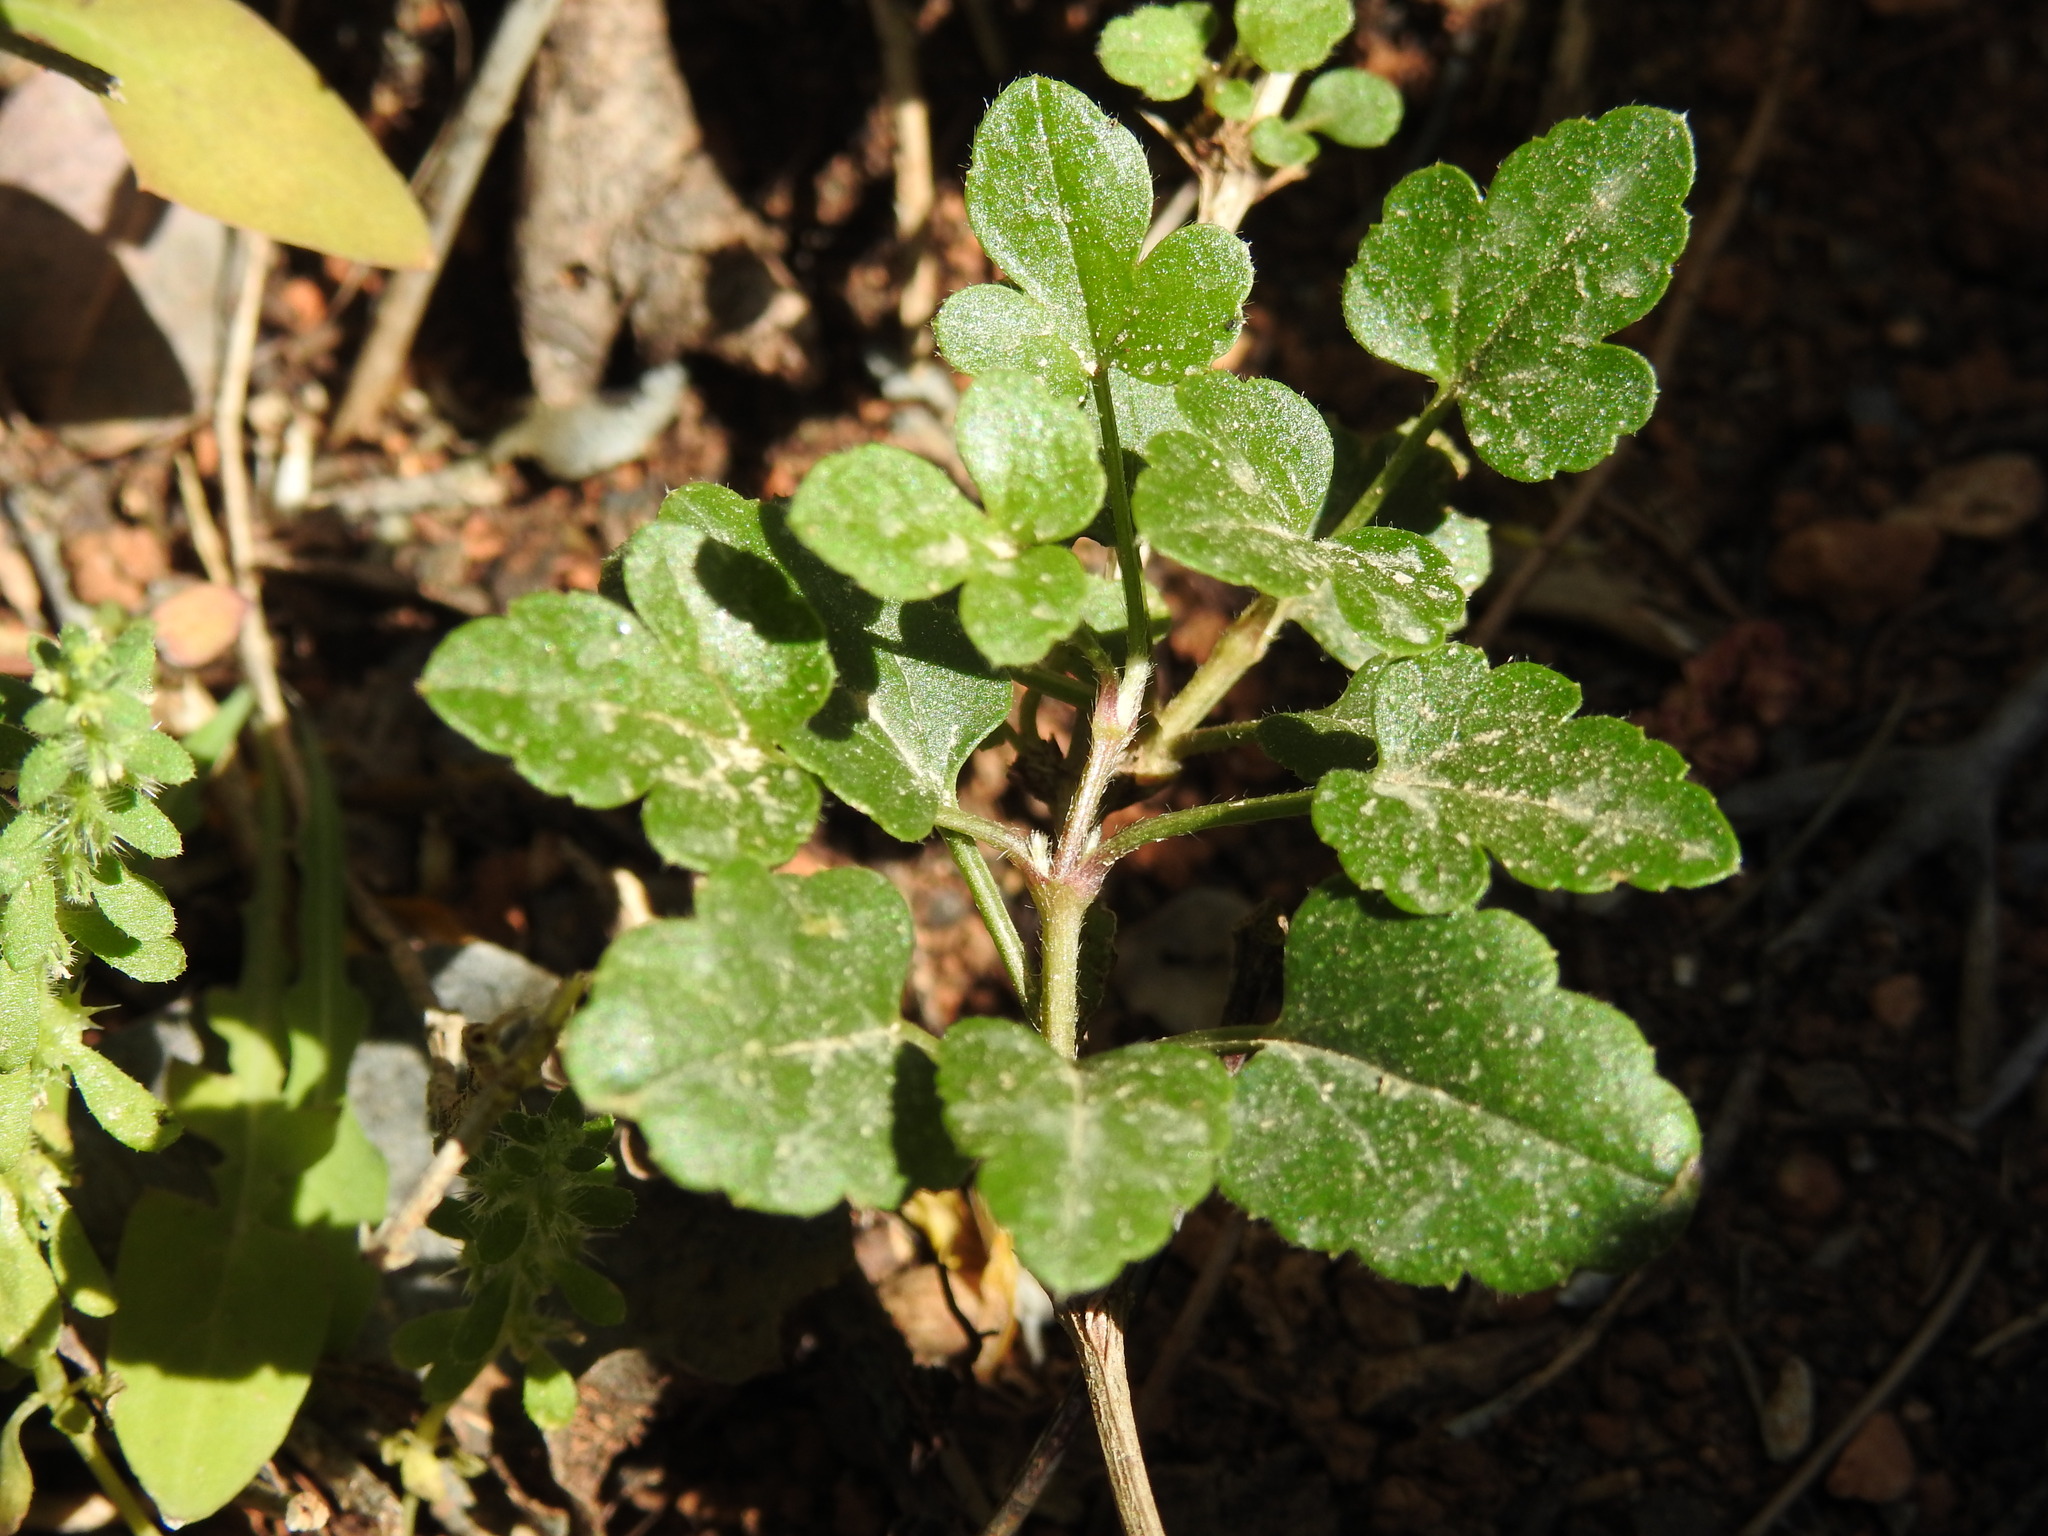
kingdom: Plantae
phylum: Tracheophyta
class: Magnoliopsida
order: Ranunculales
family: Ranunculaceae
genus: Clematis
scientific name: Clematis cirrhosa
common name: Early virgin's-bower
